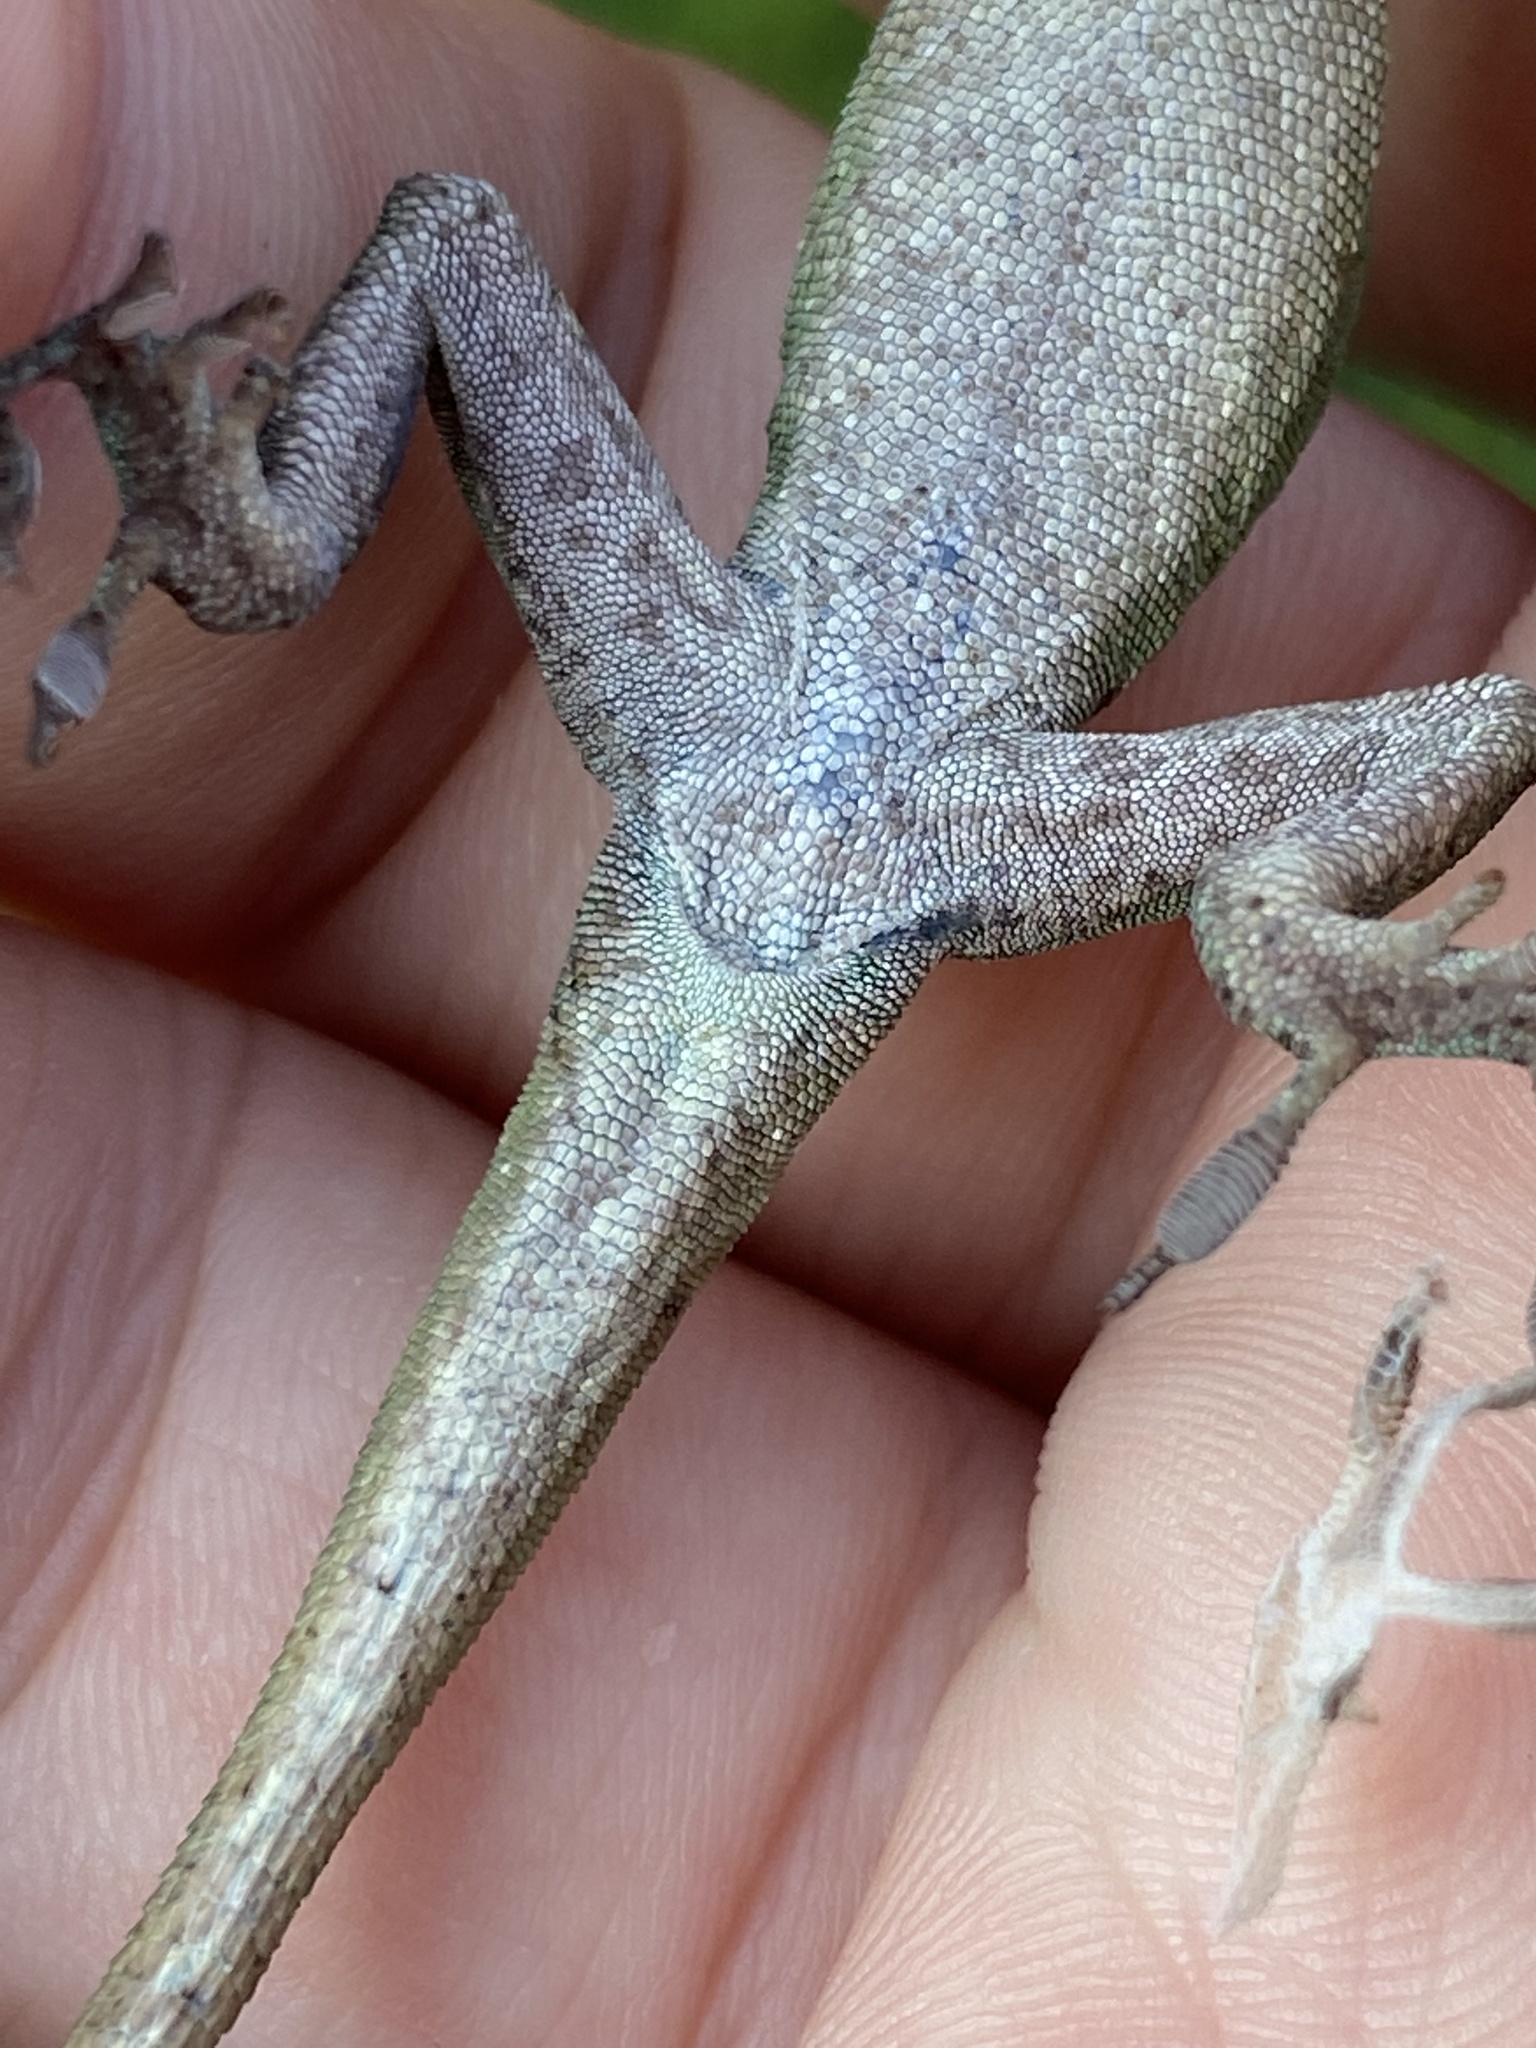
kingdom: Animalia
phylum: Chordata
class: Squamata
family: Dactyloidae
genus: Anolis
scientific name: Anolis carolinensis
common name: Green anole
